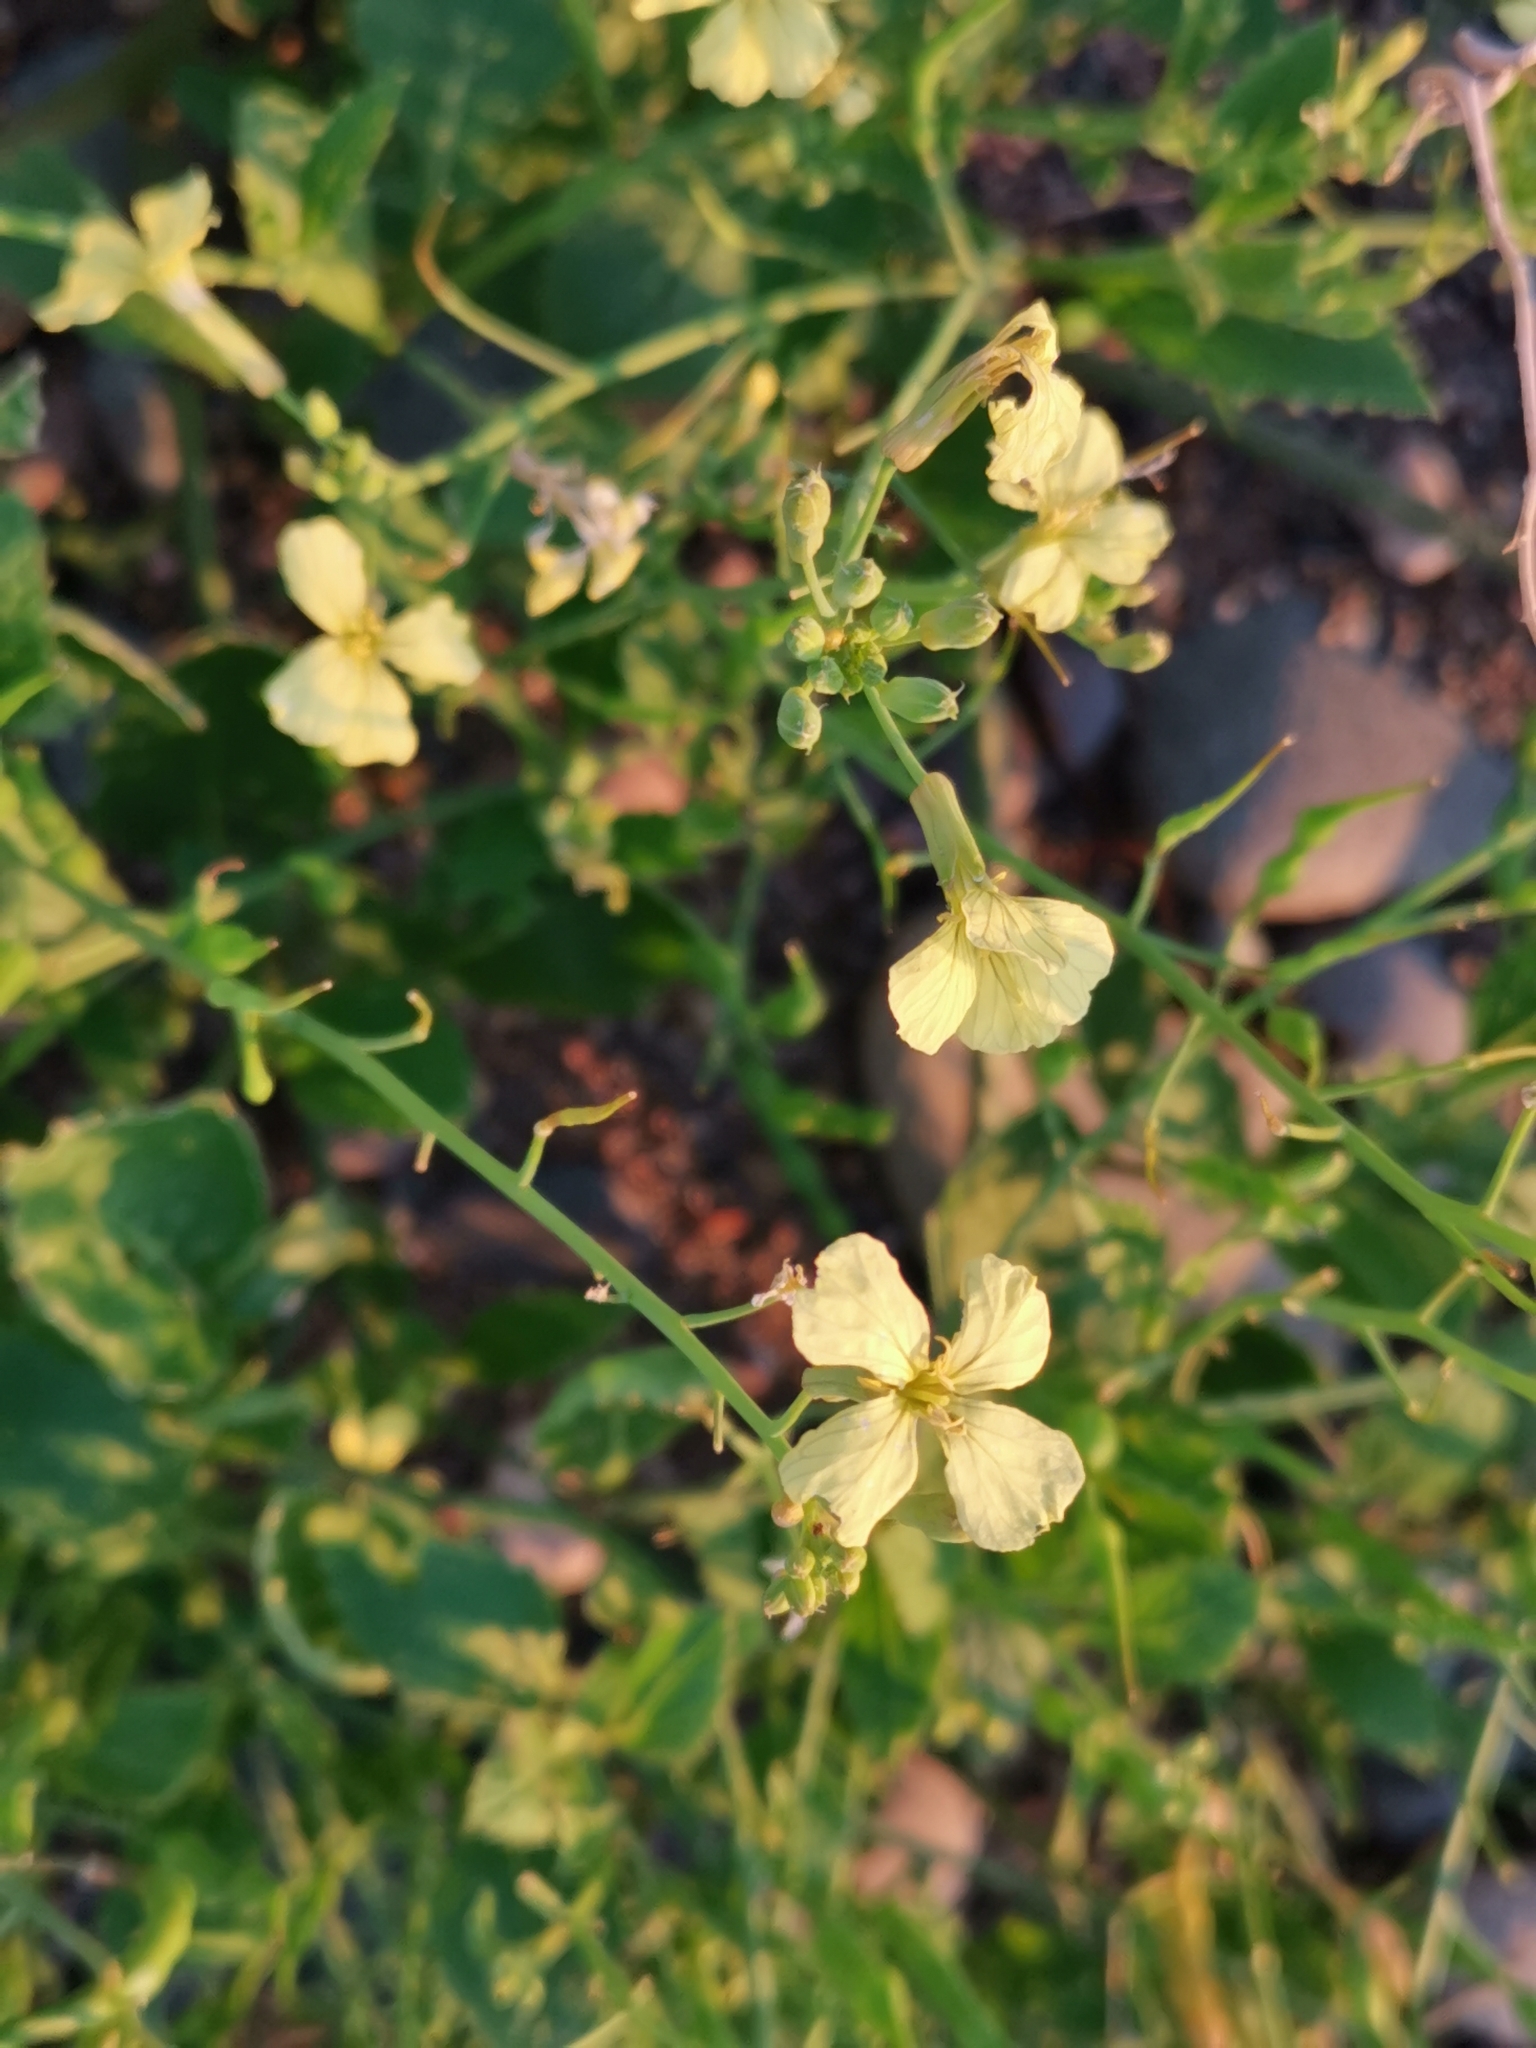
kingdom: Plantae
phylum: Tracheophyta
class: Magnoliopsida
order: Brassicales
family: Brassicaceae
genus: Raphanus
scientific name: Raphanus raphanistrum
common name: Wild radish
